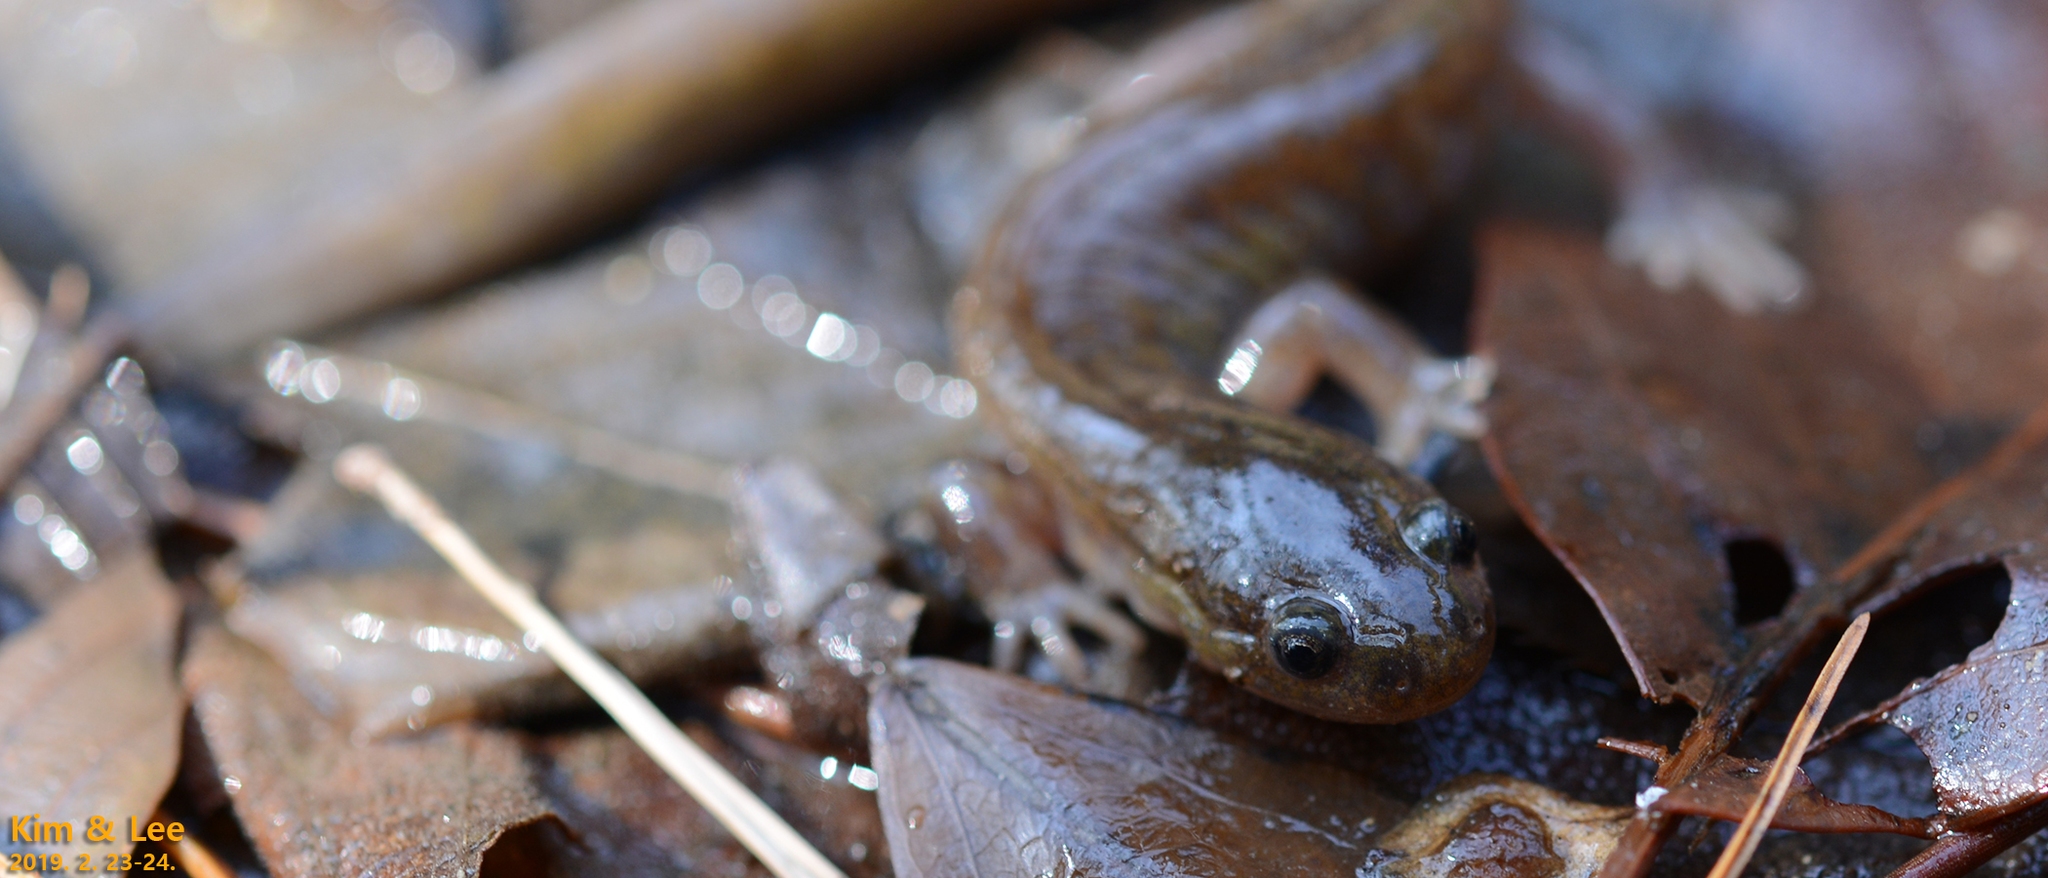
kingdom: Animalia
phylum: Chordata
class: Amphibia
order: Caudata
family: Hynobiidae
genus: Hynobius
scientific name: Hynobius notialis
